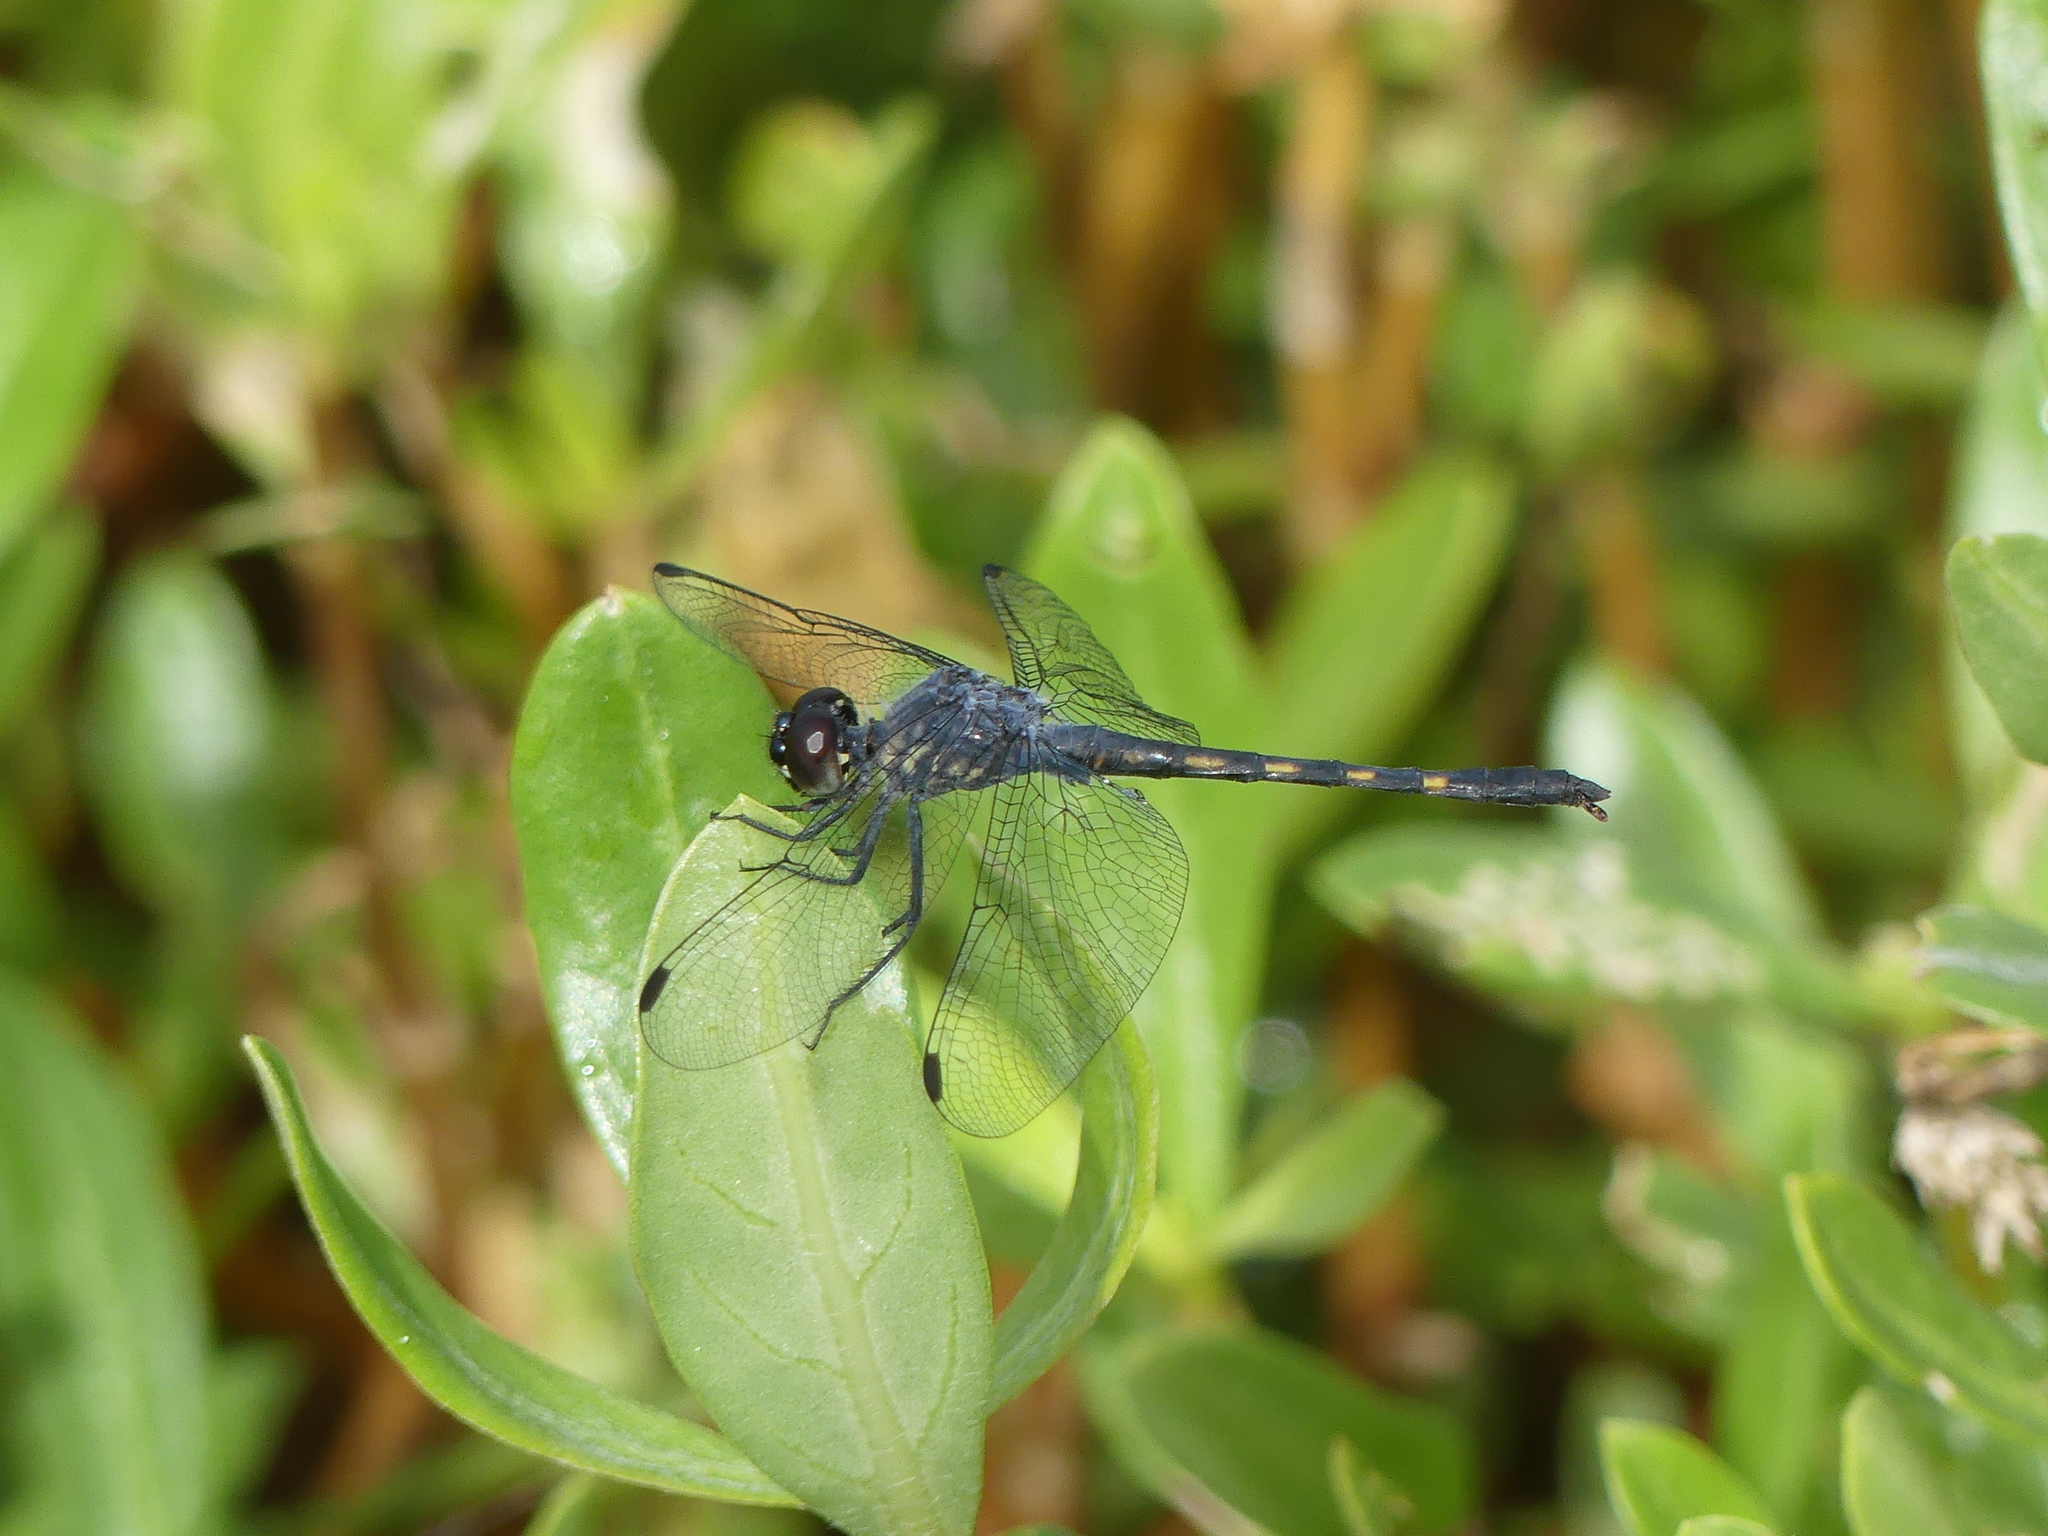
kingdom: Animalia
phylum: Arthropoda
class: Insecta
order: Odonata
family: Libellulidae
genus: Erythrodiplax
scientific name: Erythrodiplax berenice
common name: Seaside dragonlet
